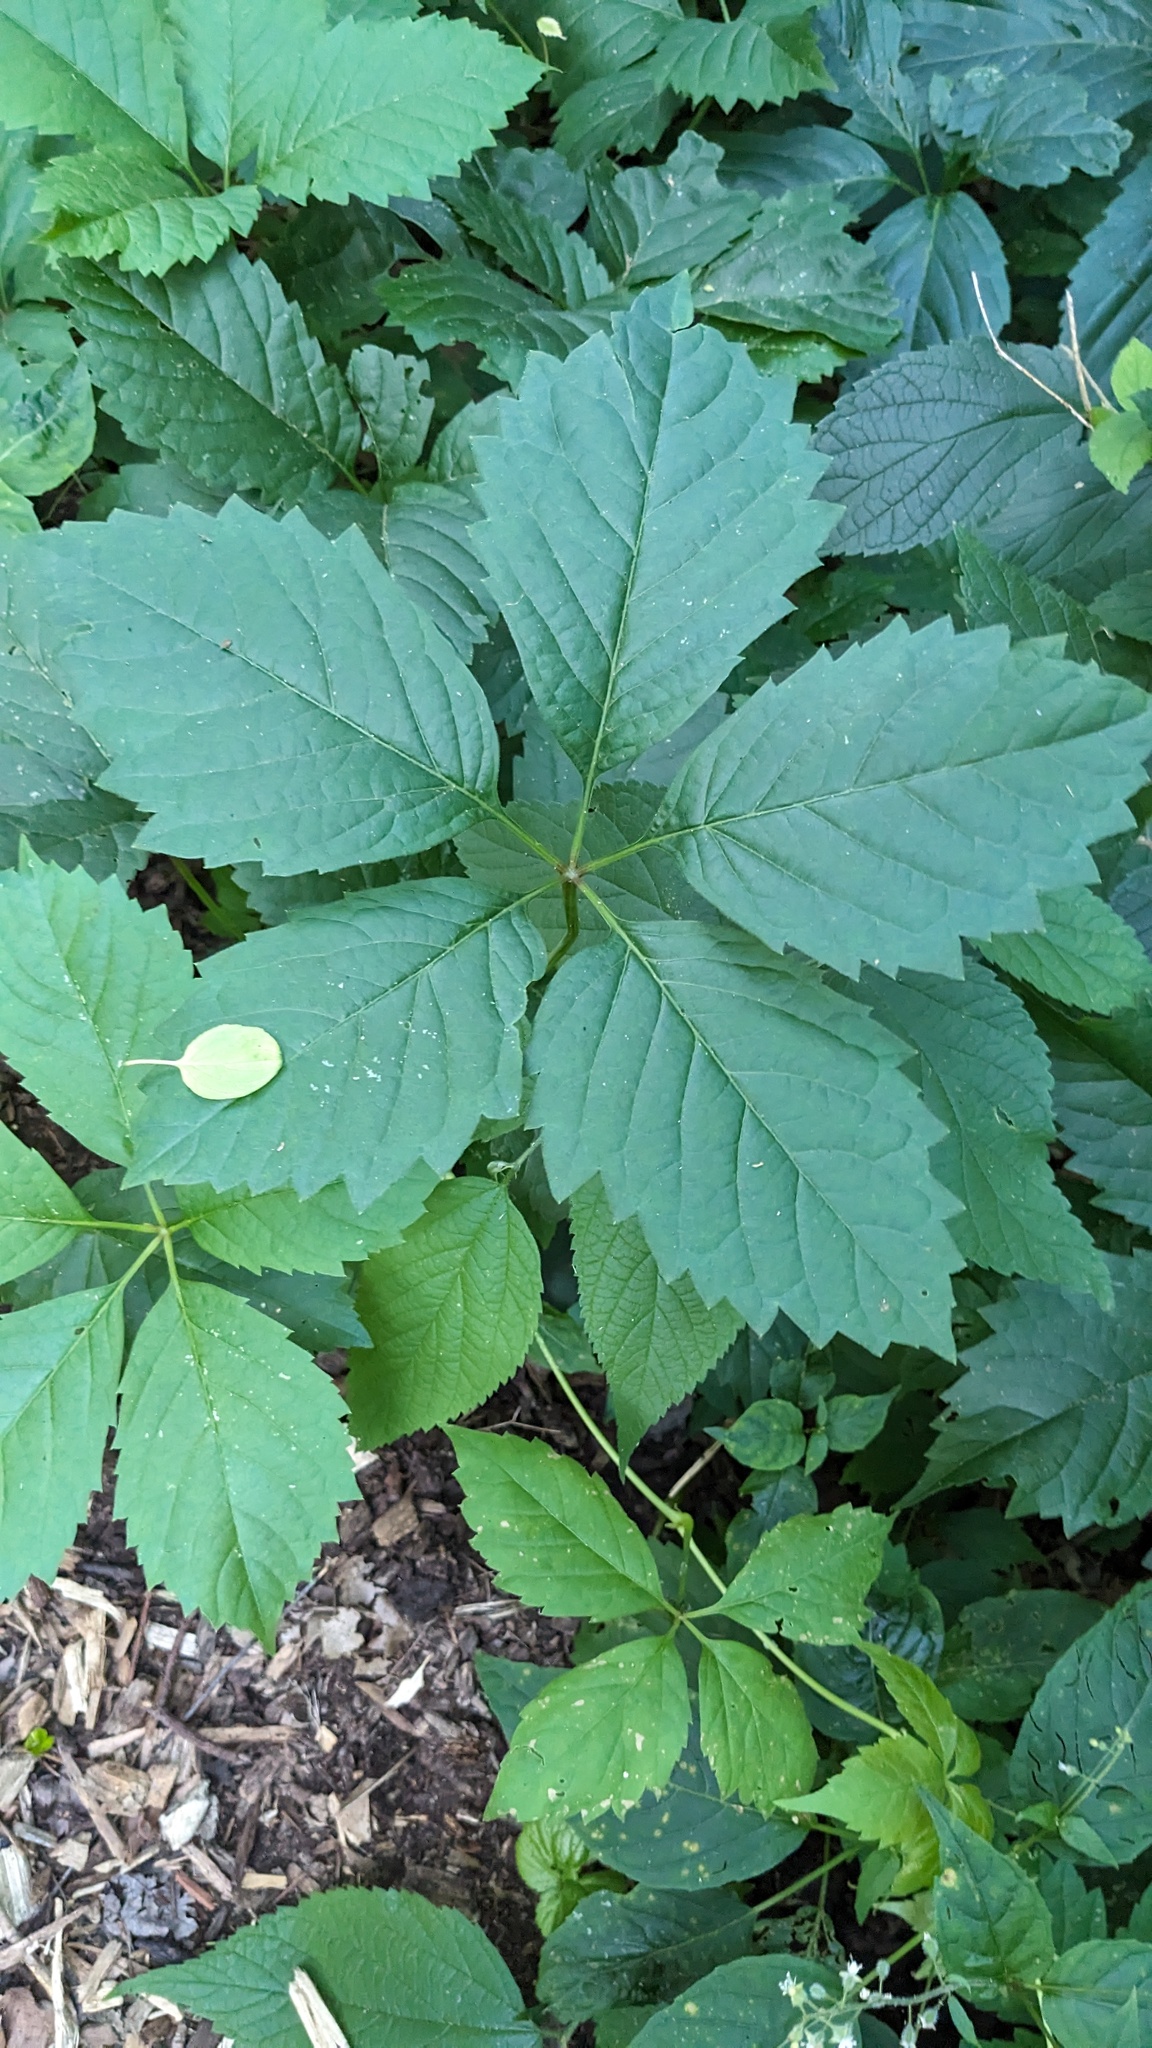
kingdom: Plantae
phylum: Tracheophyta
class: Magnoliopsida
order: Vitales
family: Vitaceae
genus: Parthenocissus
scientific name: Parthenocissus inserta
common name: False virginia-creeper
